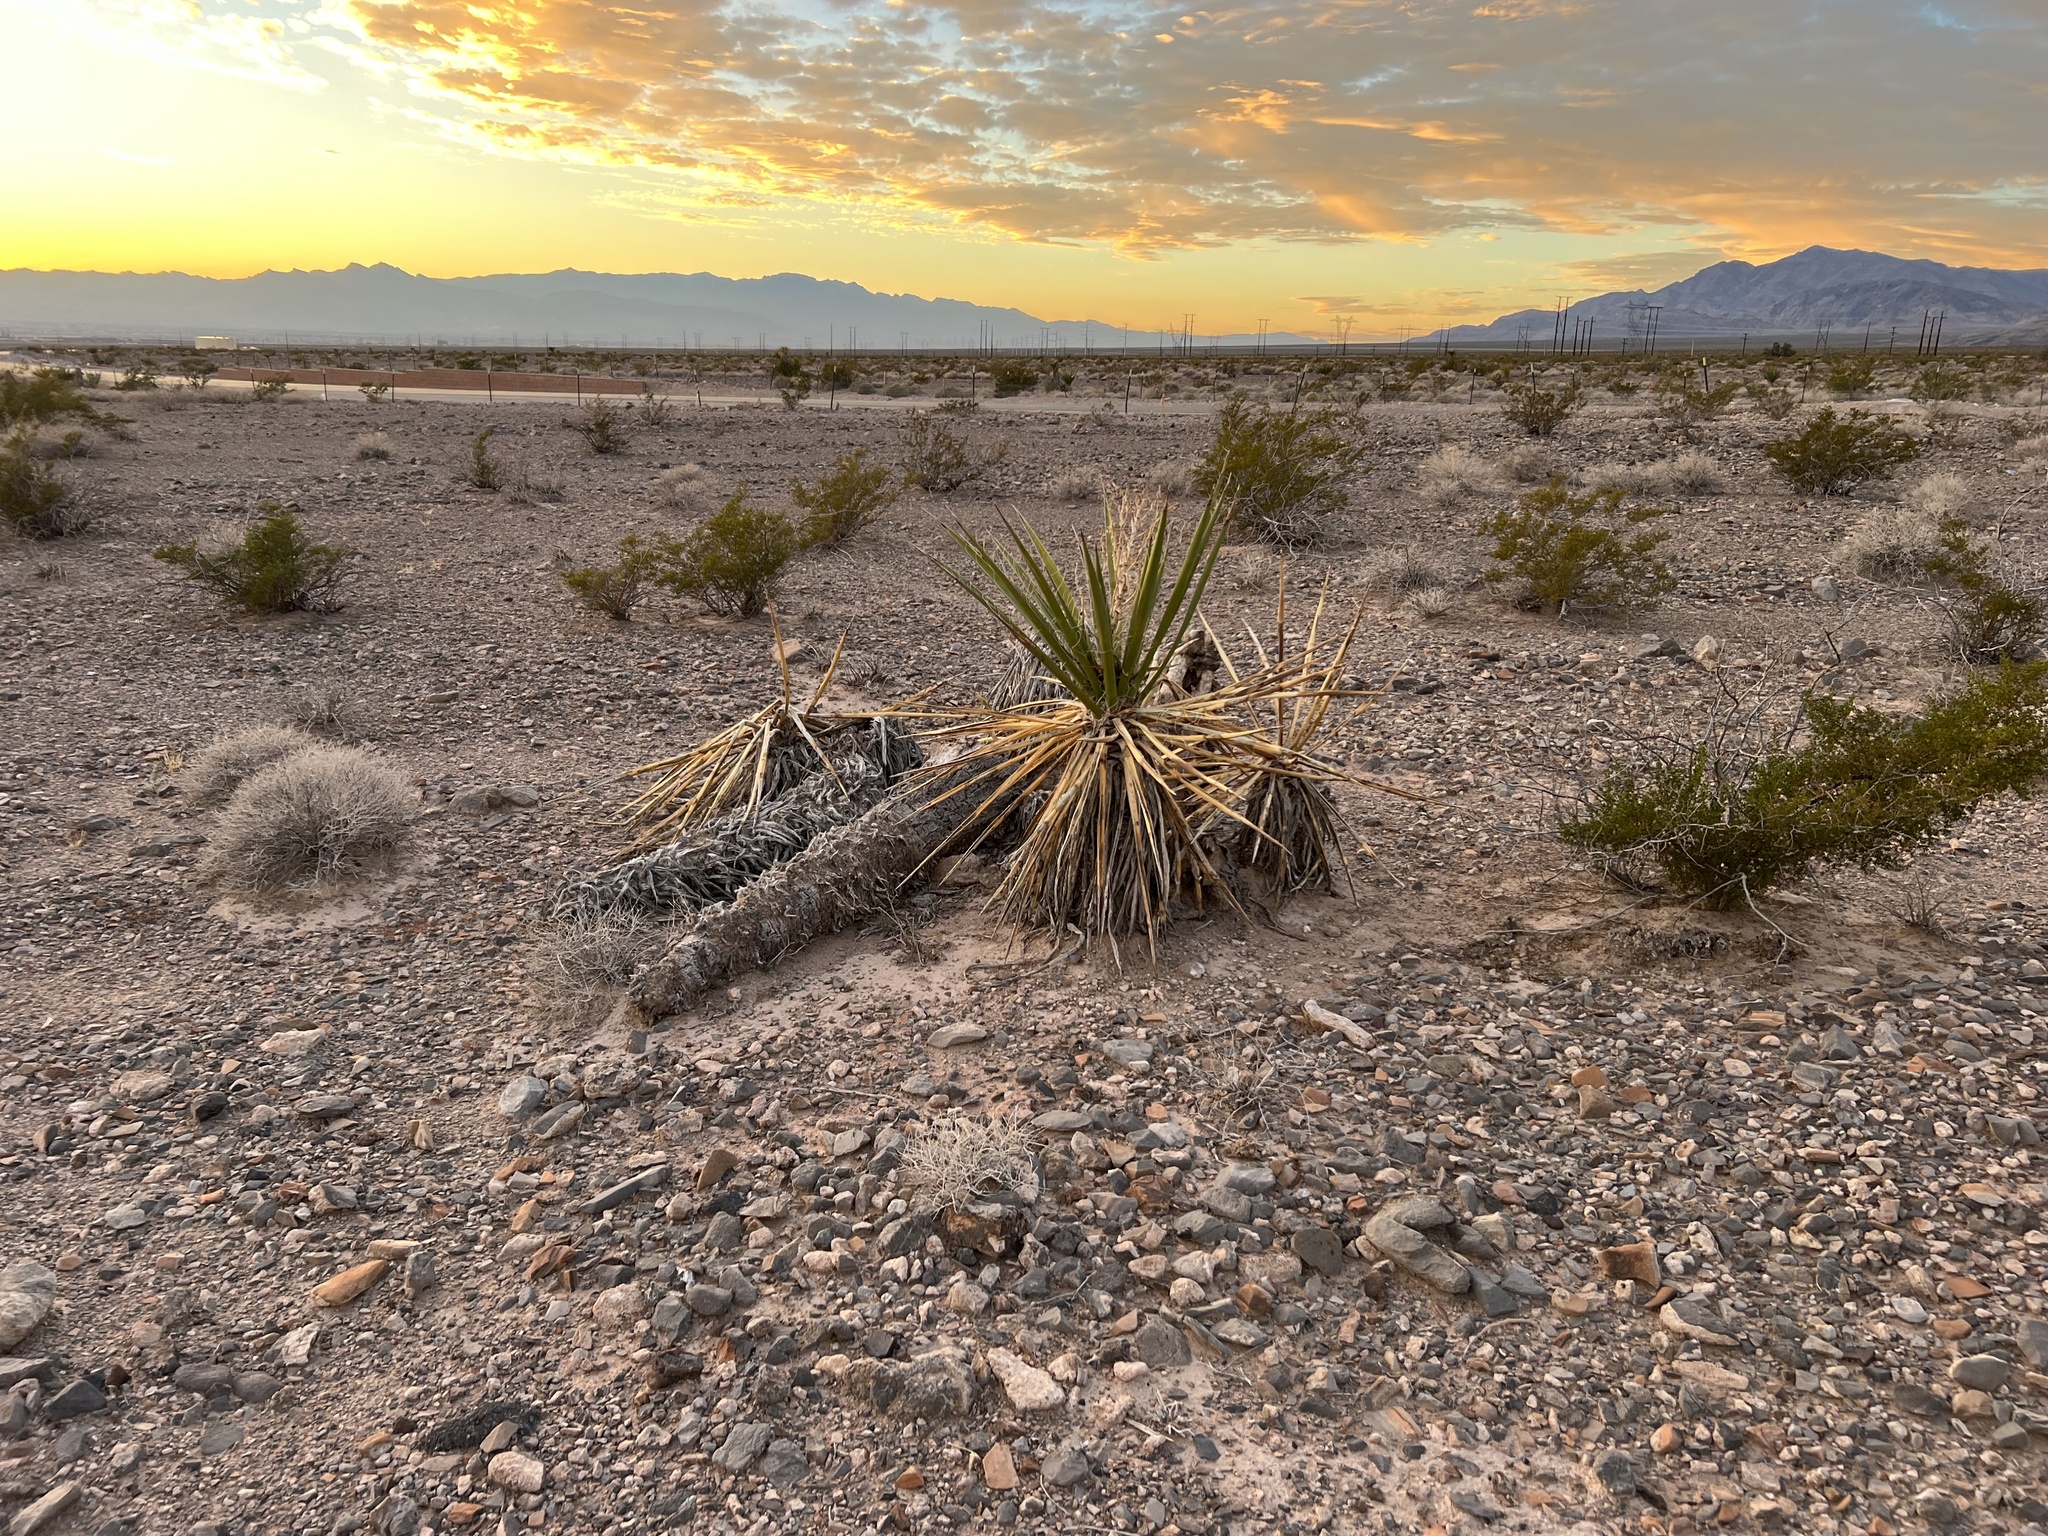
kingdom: Plantae
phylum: Tracheophyta
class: Liliopsida
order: Asparagales
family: Asparagaceae
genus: Yucca
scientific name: Yucca schidigera
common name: Mojave yucca
